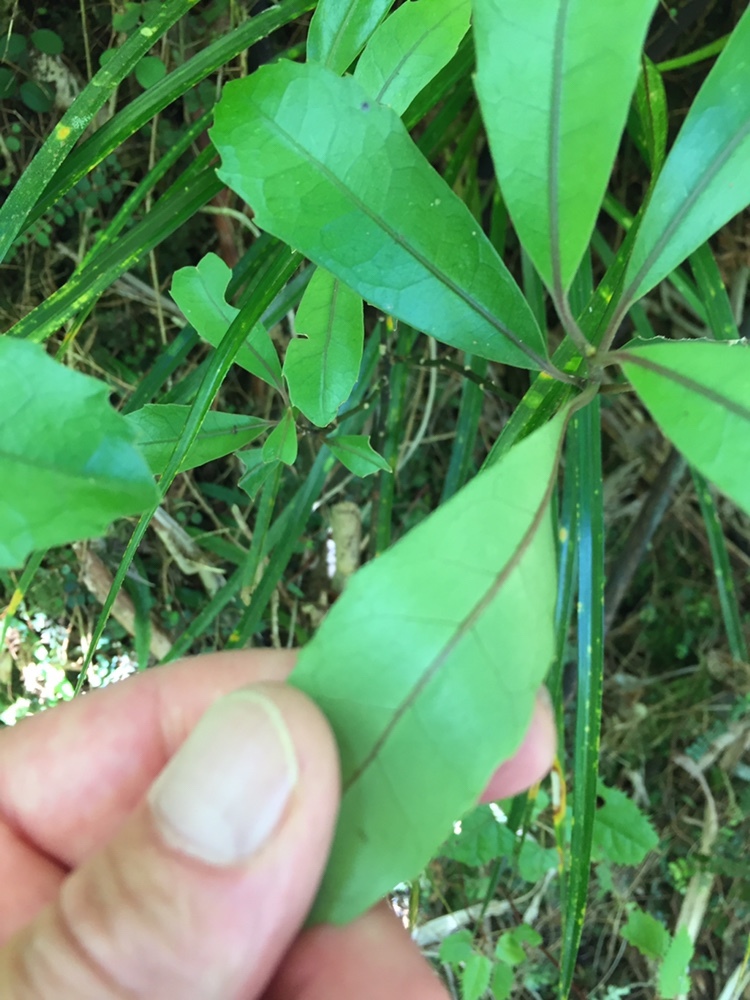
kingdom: Plantae
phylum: Tracheophyta
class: Magnoliopsida
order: Laurales
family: Monimiaceae
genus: Hedycarya
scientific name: Hedycarya arborea
